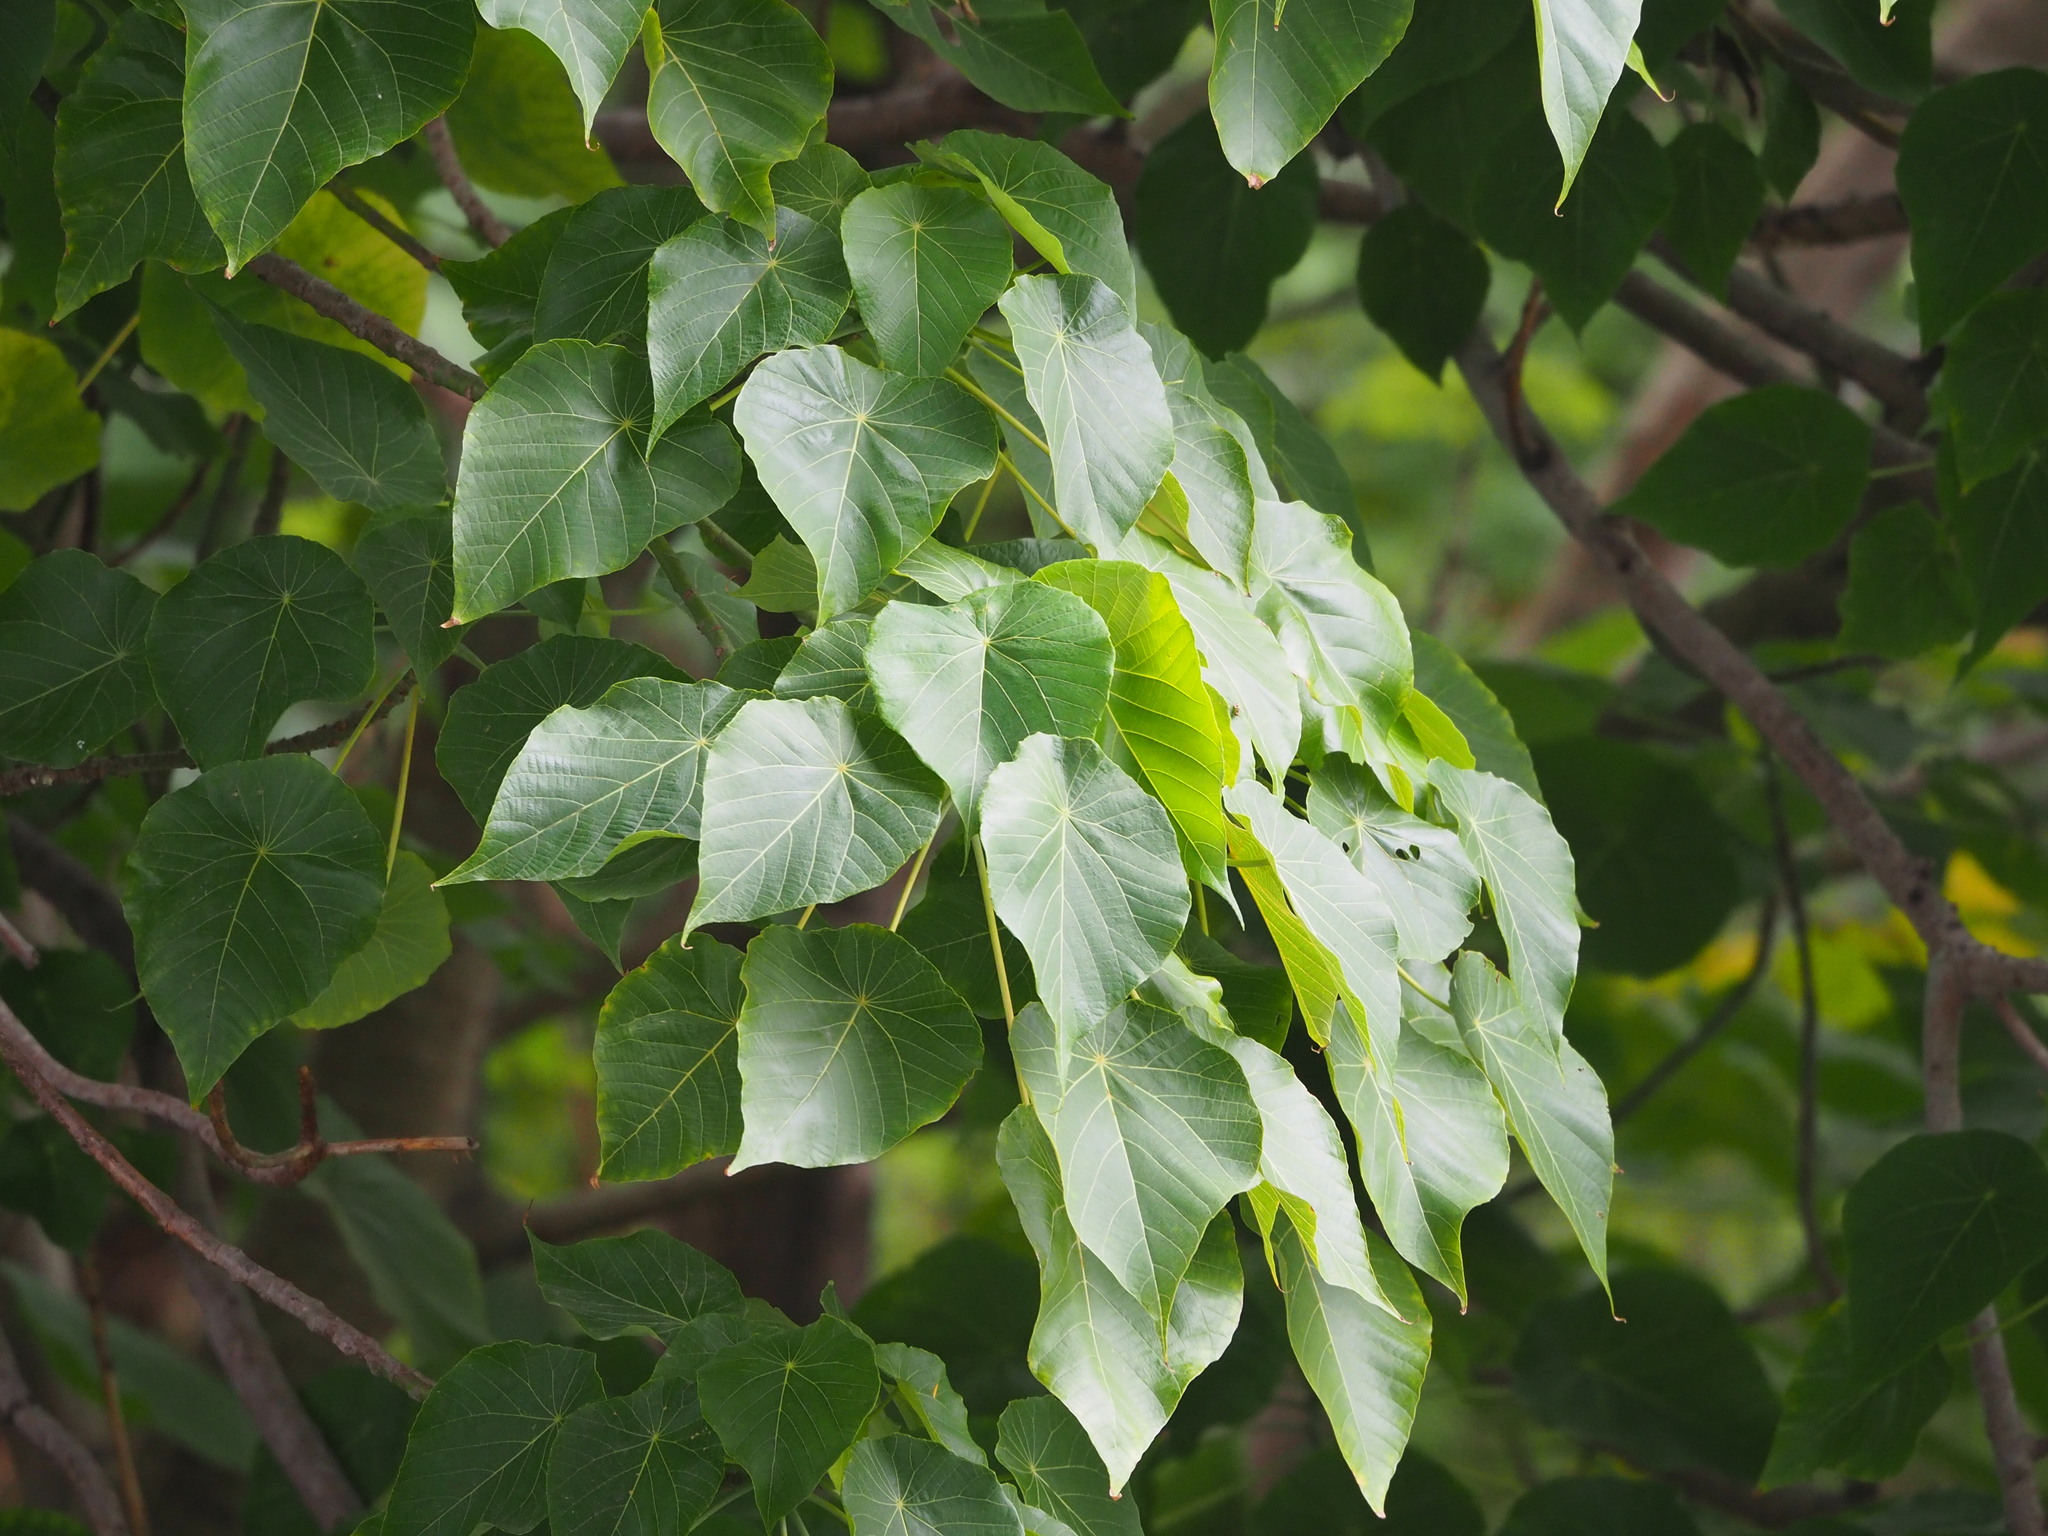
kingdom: Plantae
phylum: Tracheophyta
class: Magnoliopsida
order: Malpighiales
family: Euphorbiaceae
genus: Macaranga
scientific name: Macaranga tanarius
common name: Parasol leaf tree
